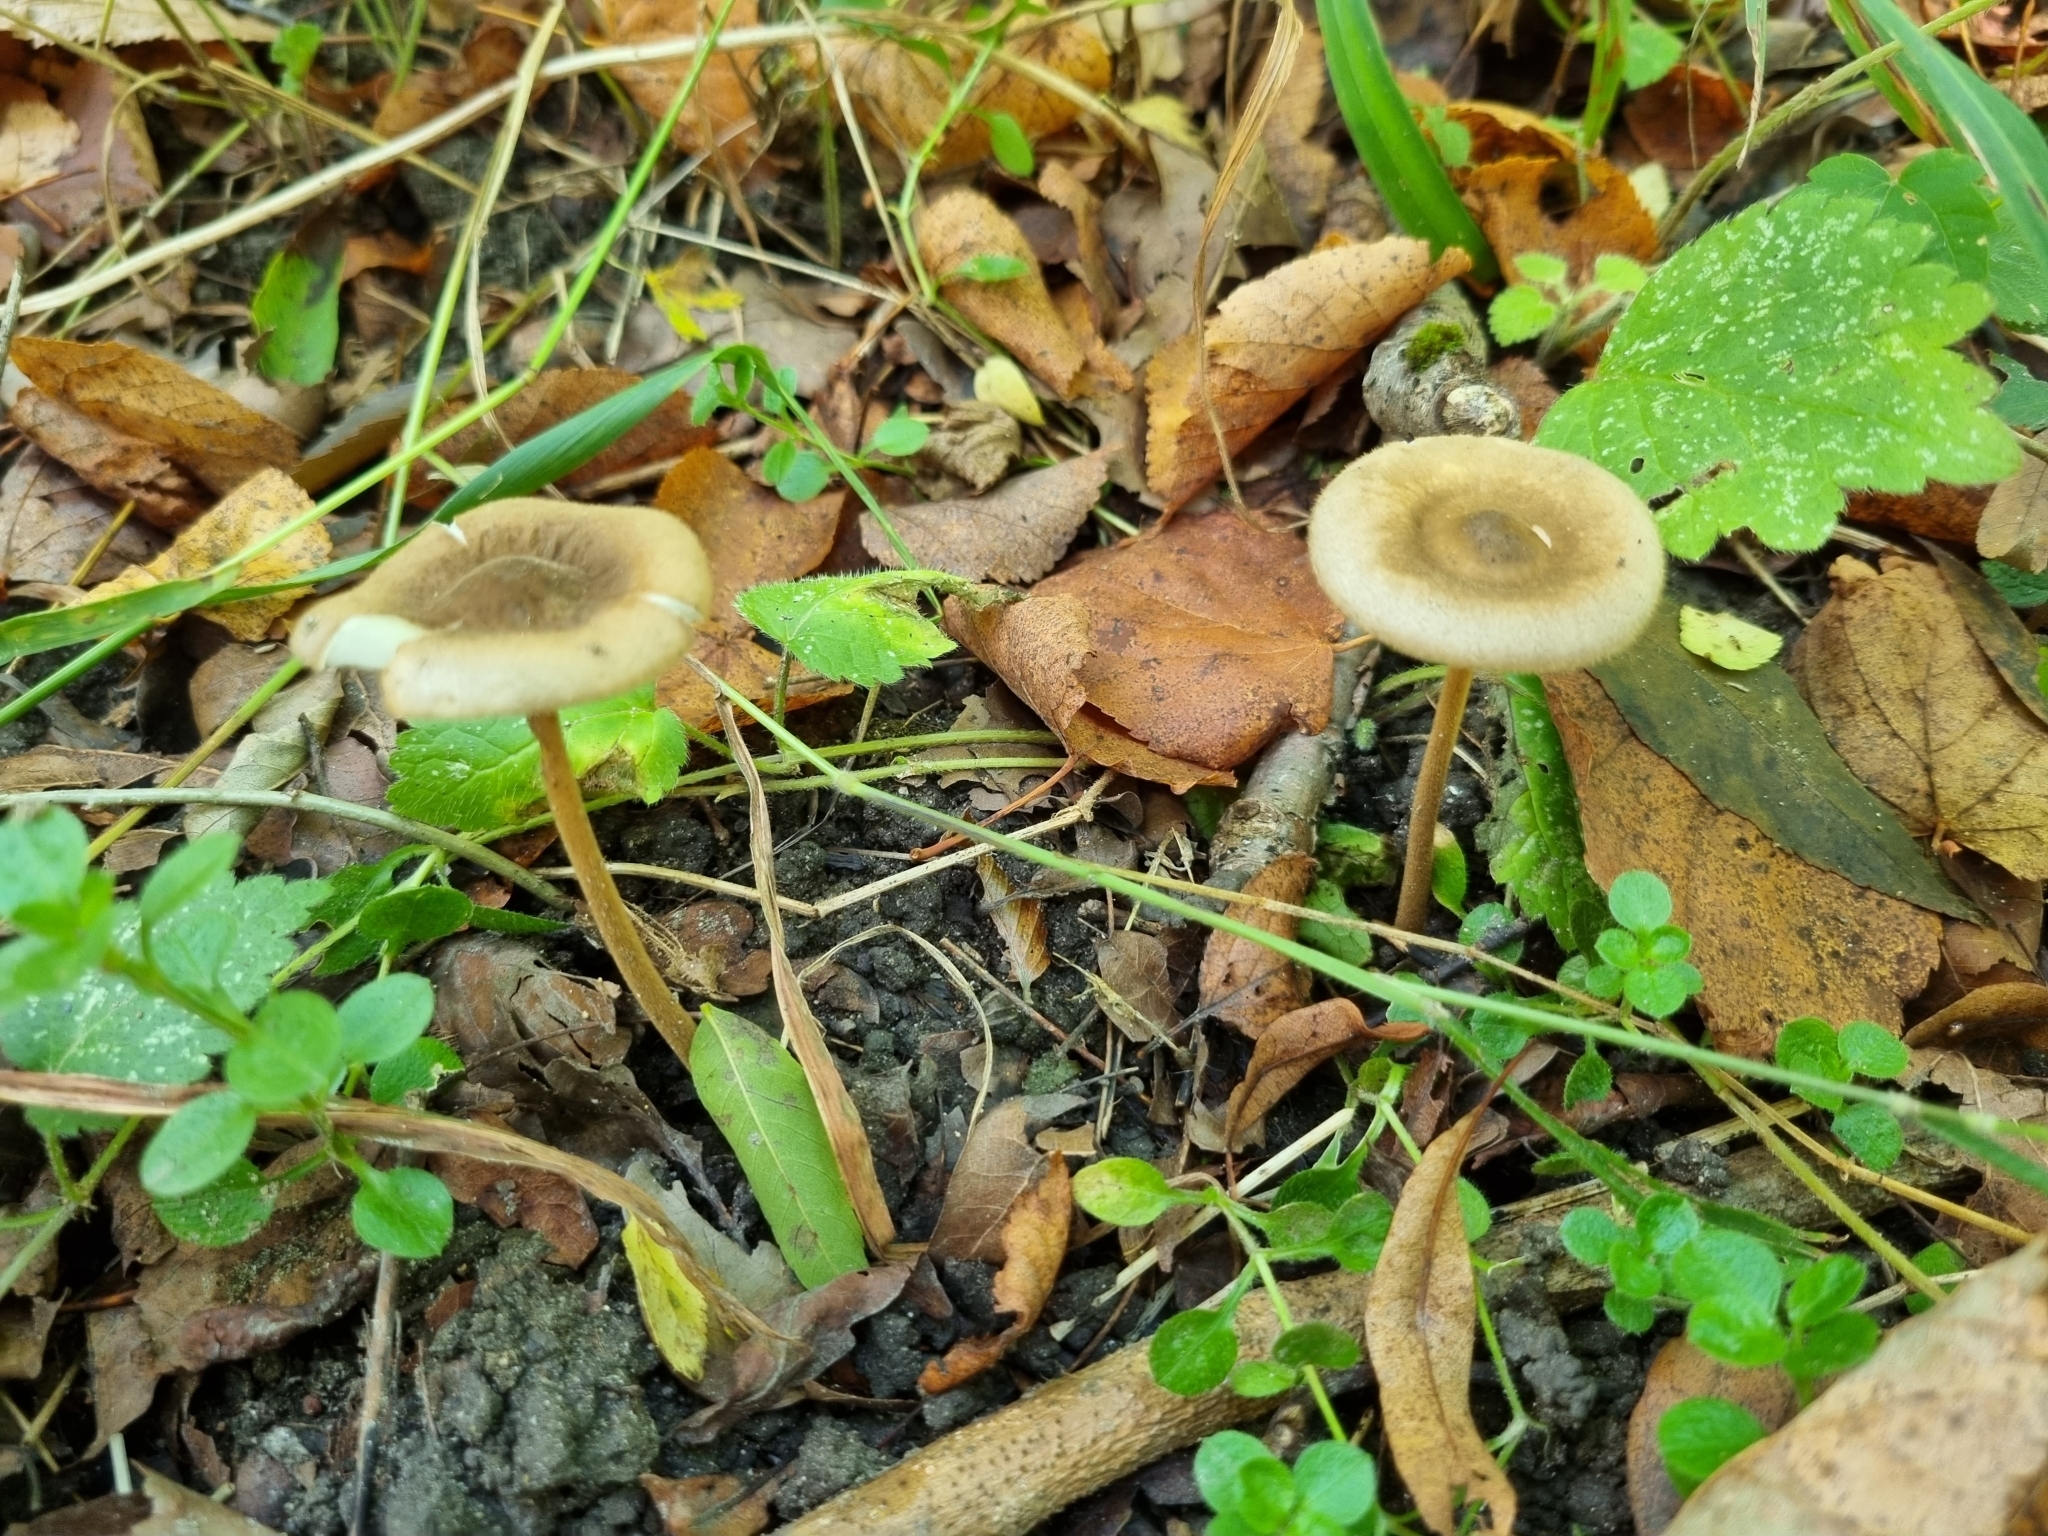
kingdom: Fungi
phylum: Basidiomycota
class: Agaricomycetes
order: Agaricales
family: Physalacriaceae
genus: Xerula
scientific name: Xerula pudens
